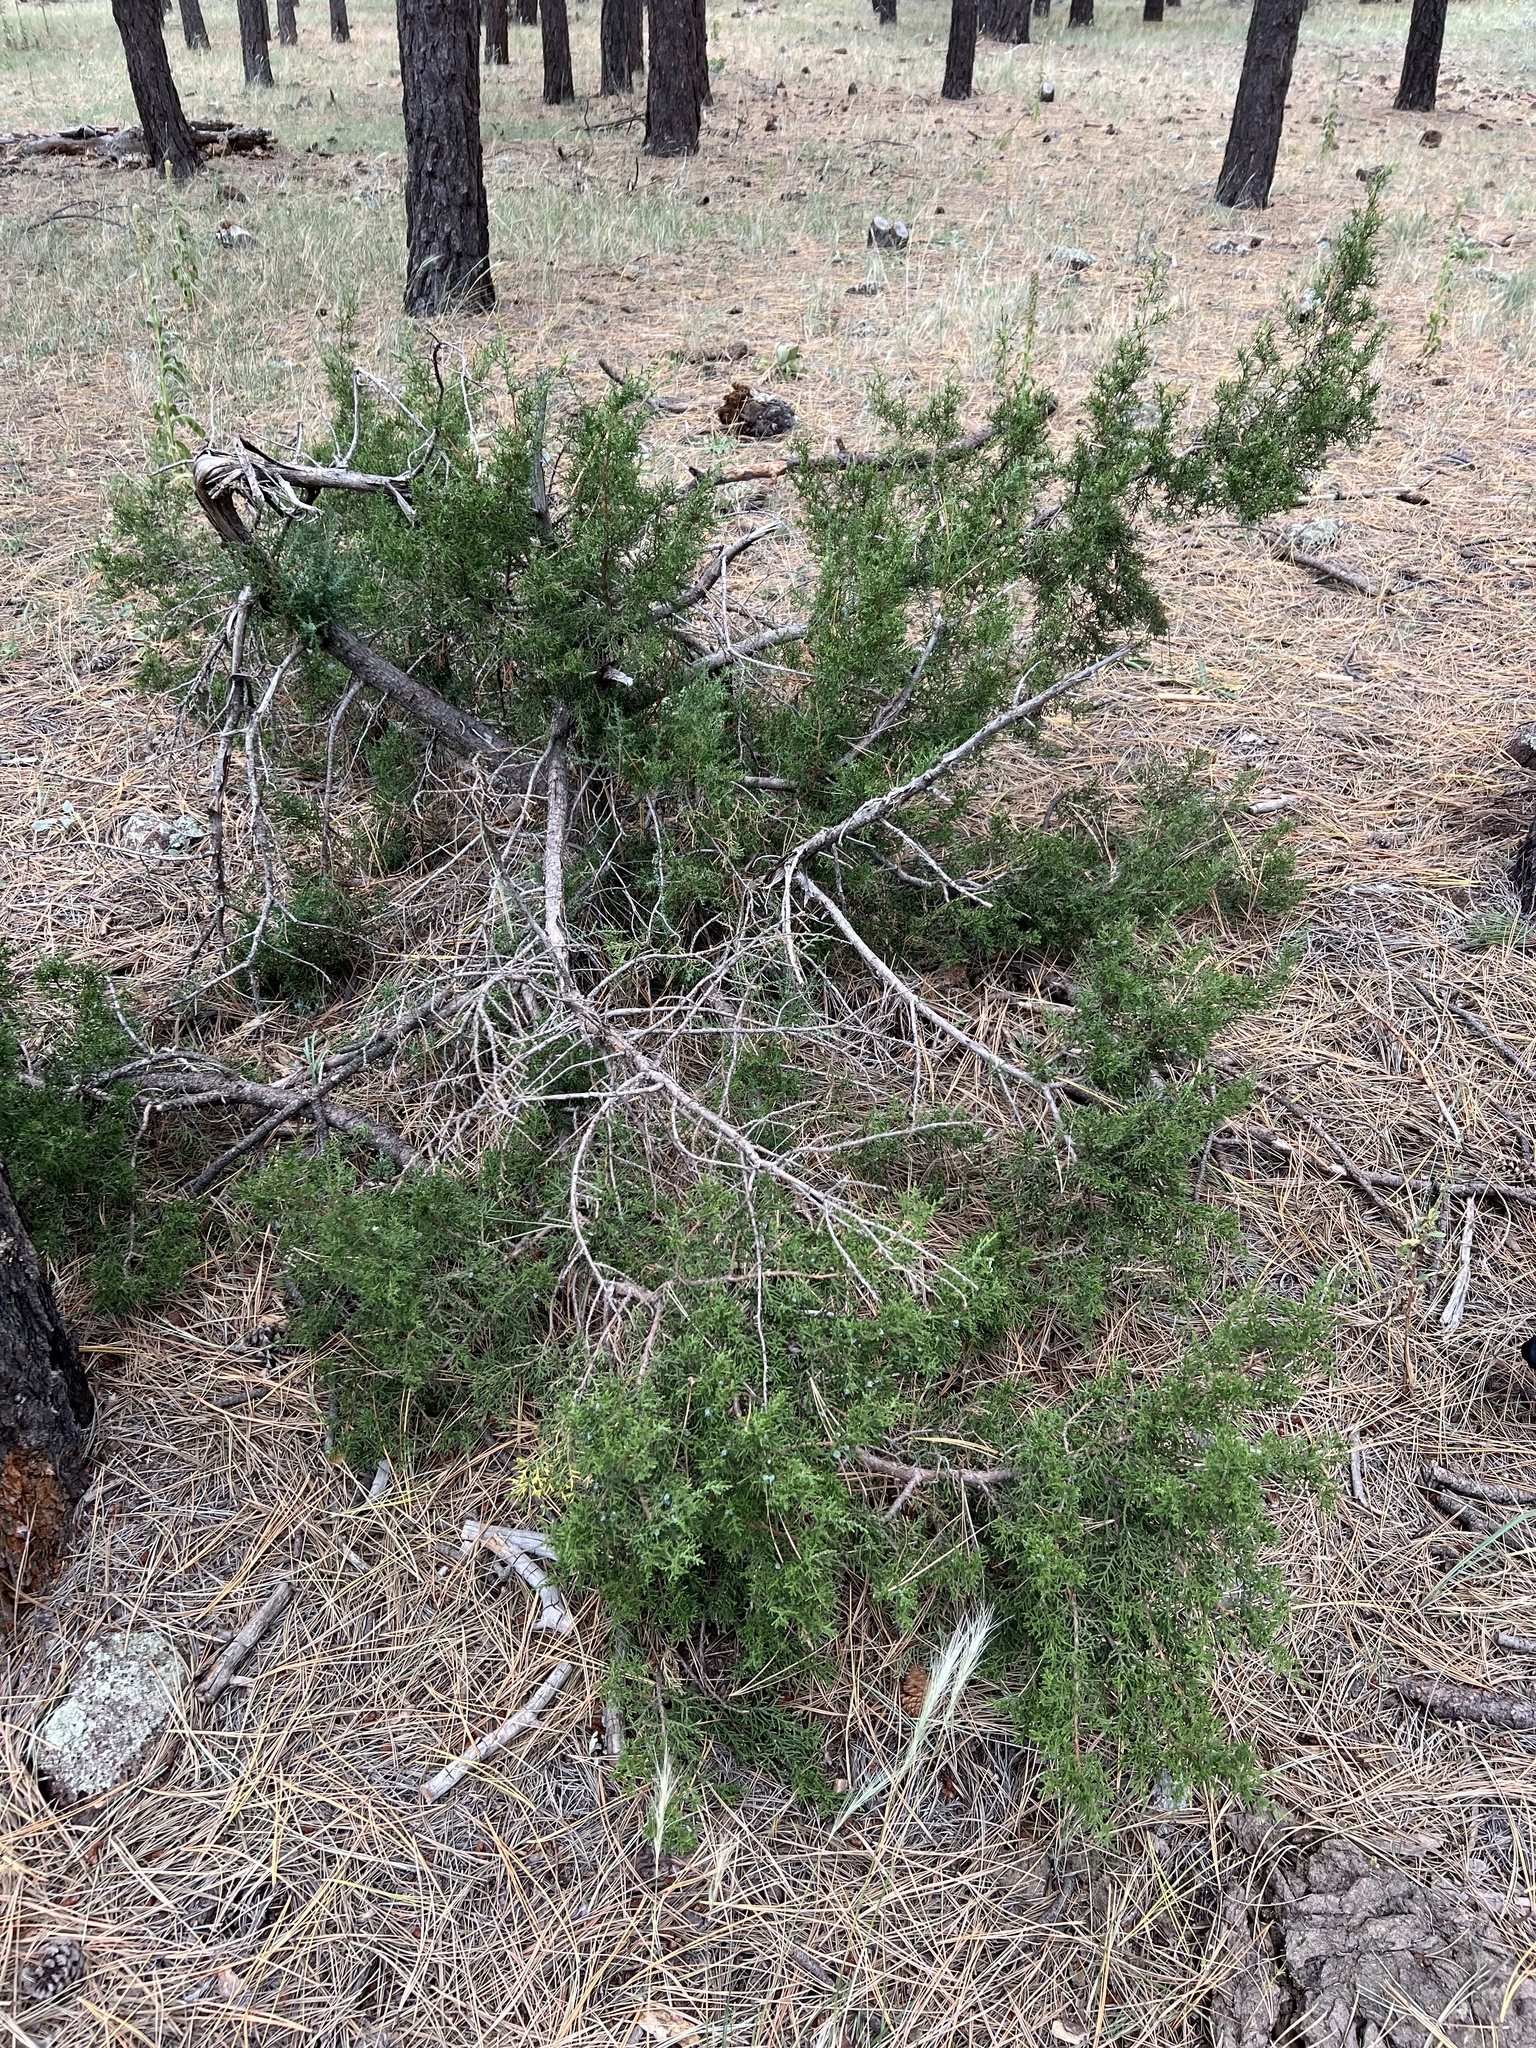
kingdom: Plantae
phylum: Tracheophyta
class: Pinopsida
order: Pinales
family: Cupressaceae
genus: Juniperus
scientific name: Juniperus scopulorum
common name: Rocky mountain juniper
